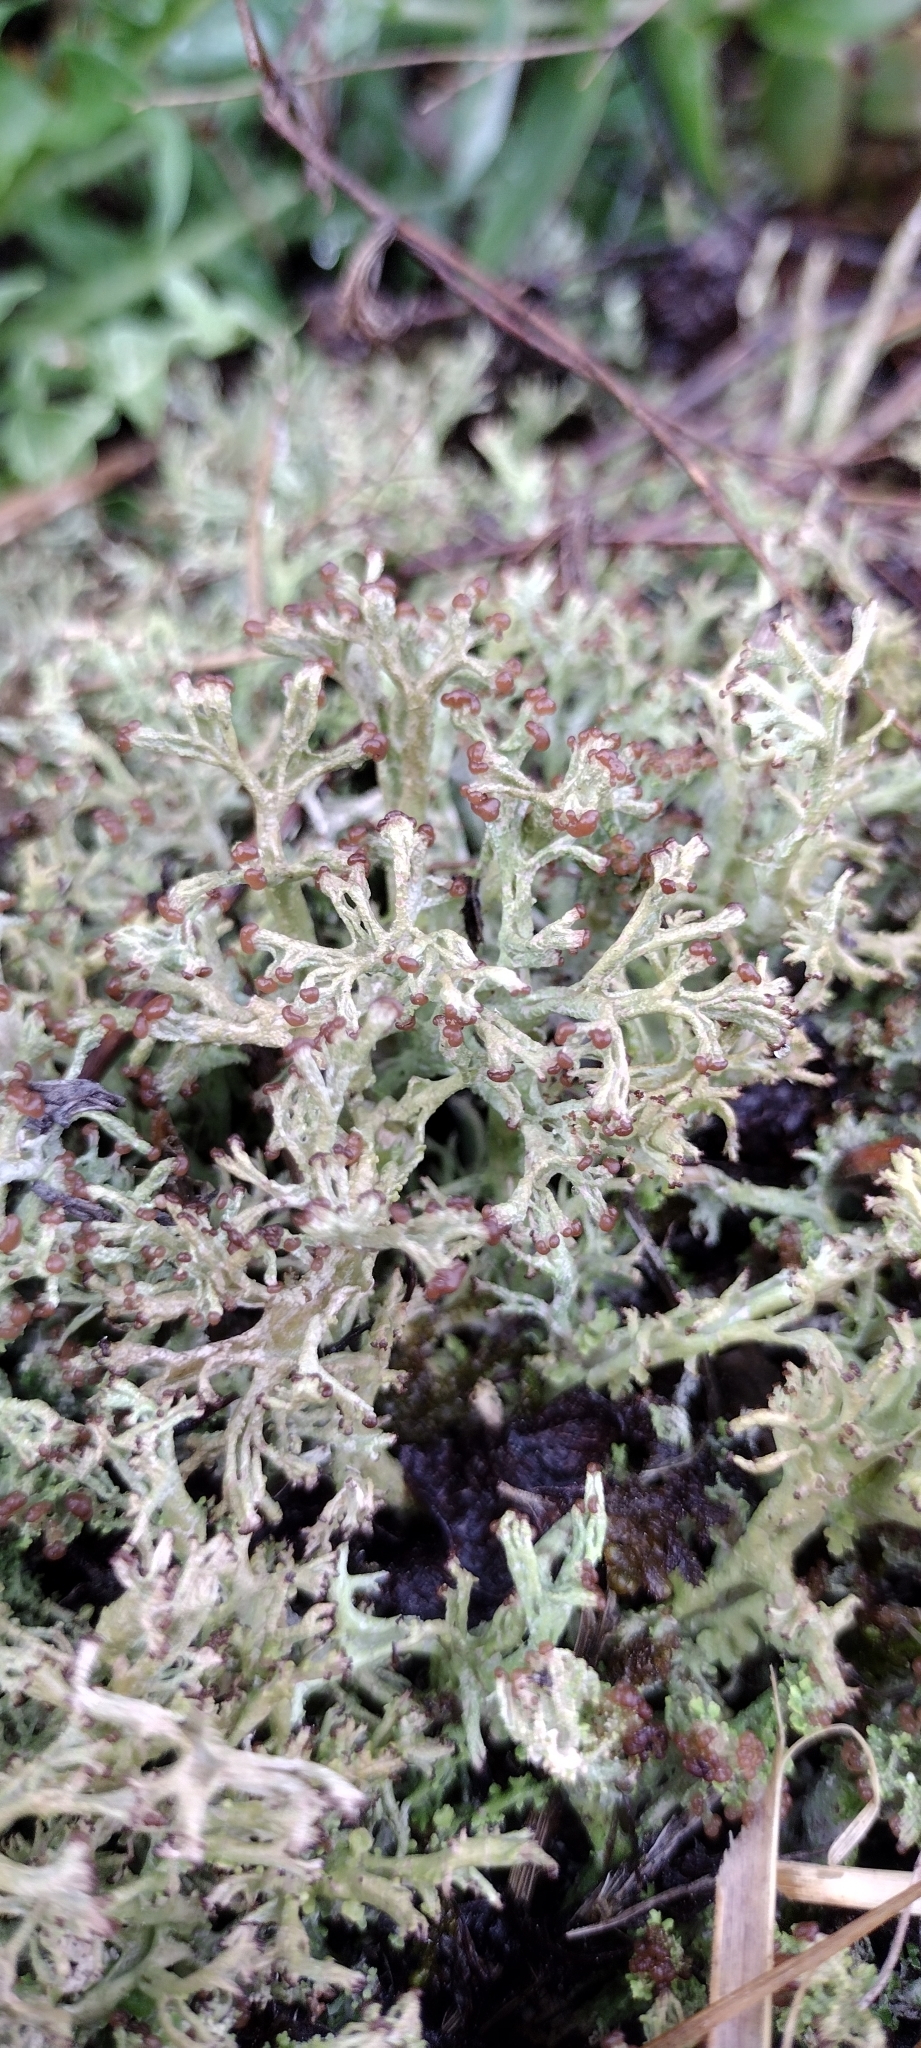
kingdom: Fungi
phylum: Ascomycota
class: Lecanoromycetes
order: Lecanorales
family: Cladoniaceae
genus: Cladonia
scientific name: Cladonia furcata
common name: Many-forked cladonia
